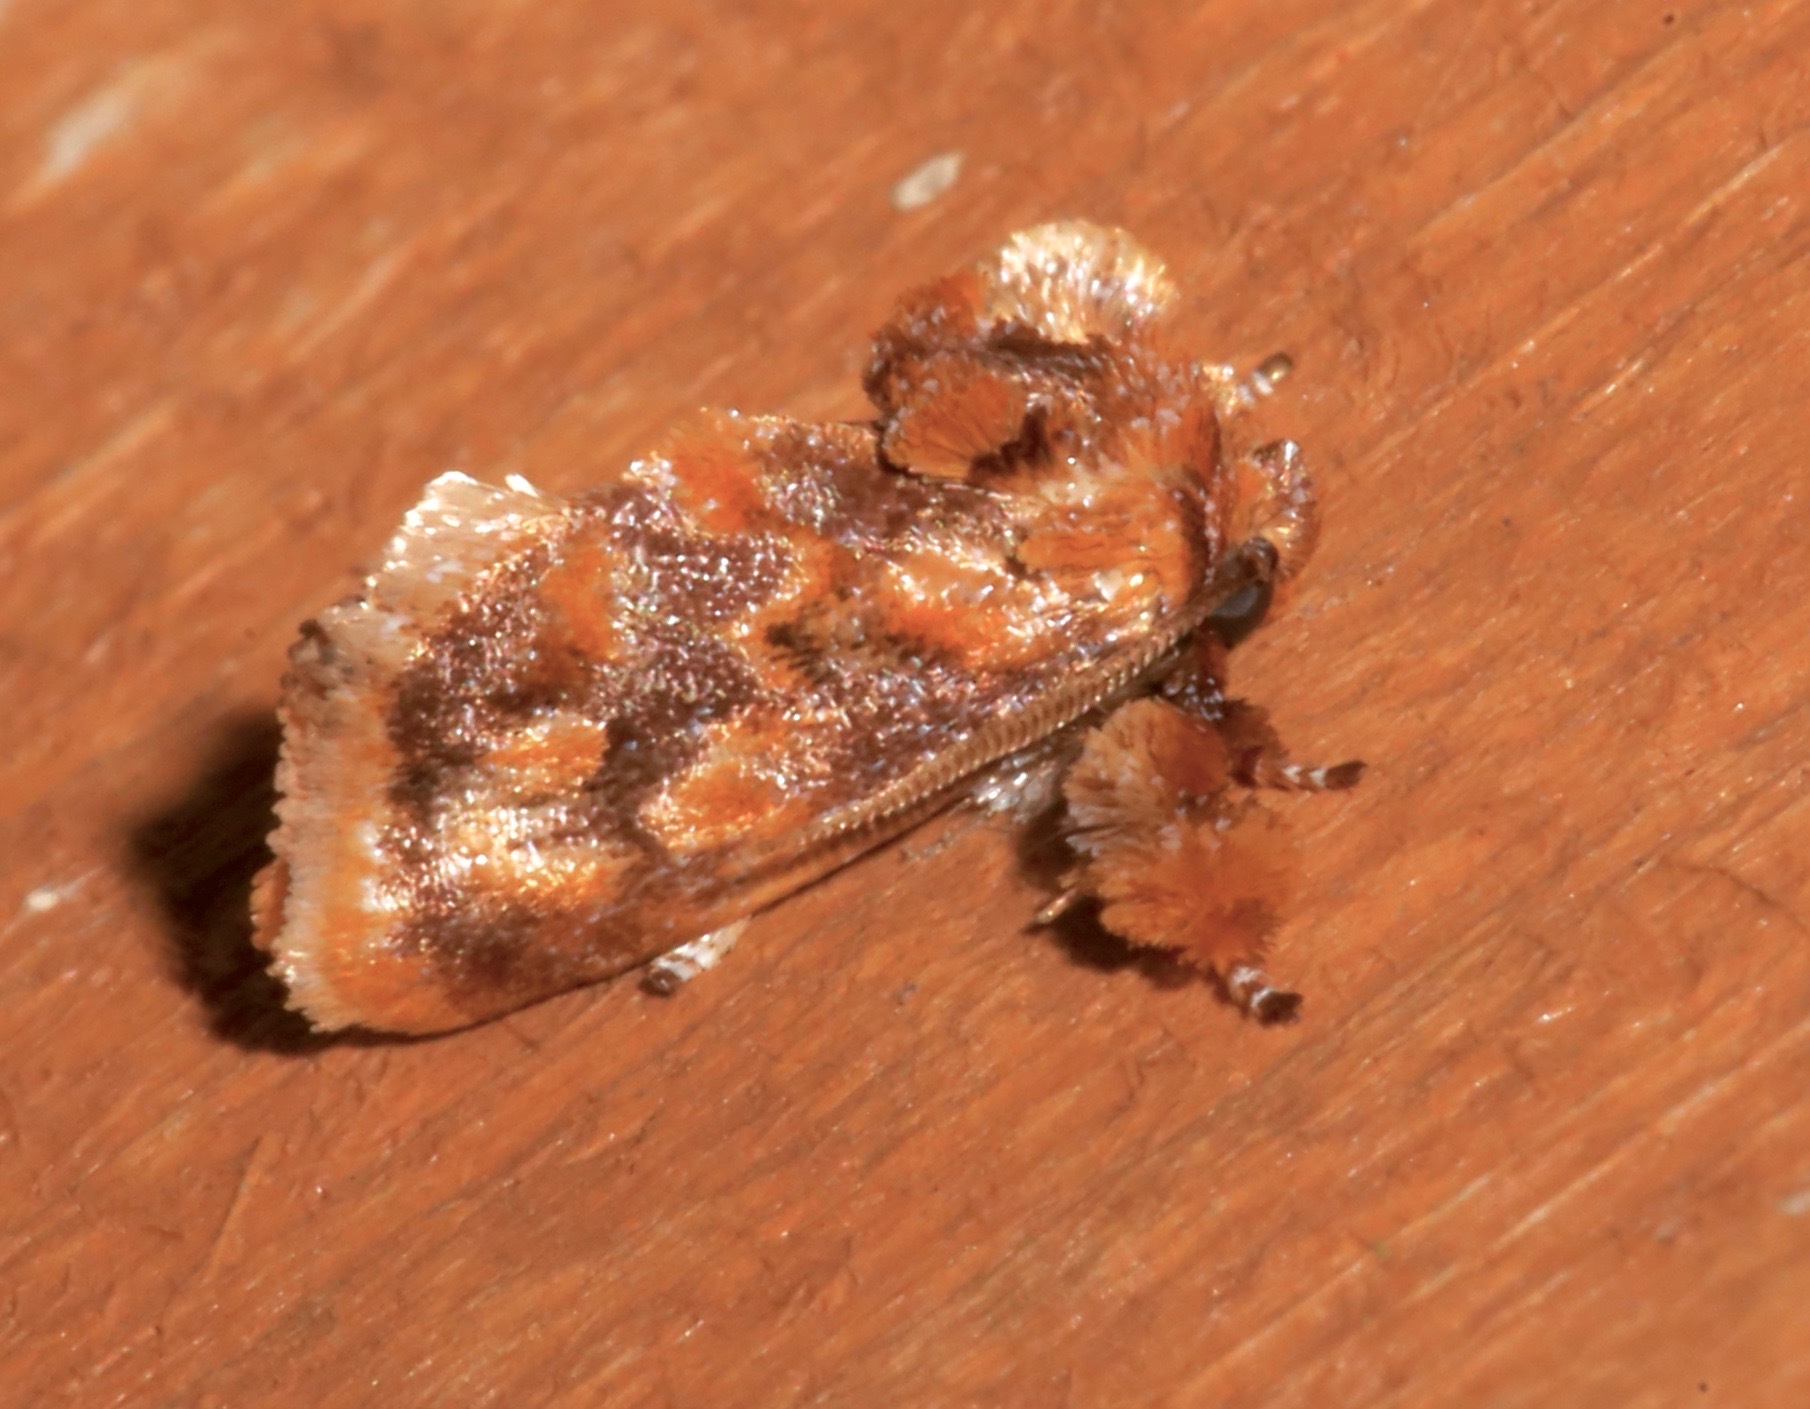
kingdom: Animalia
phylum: Arthropoda
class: Insecta
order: Lepidoptera
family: Limacodidae
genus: Isochaetes
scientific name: Isochaetes beutenmuelleri
